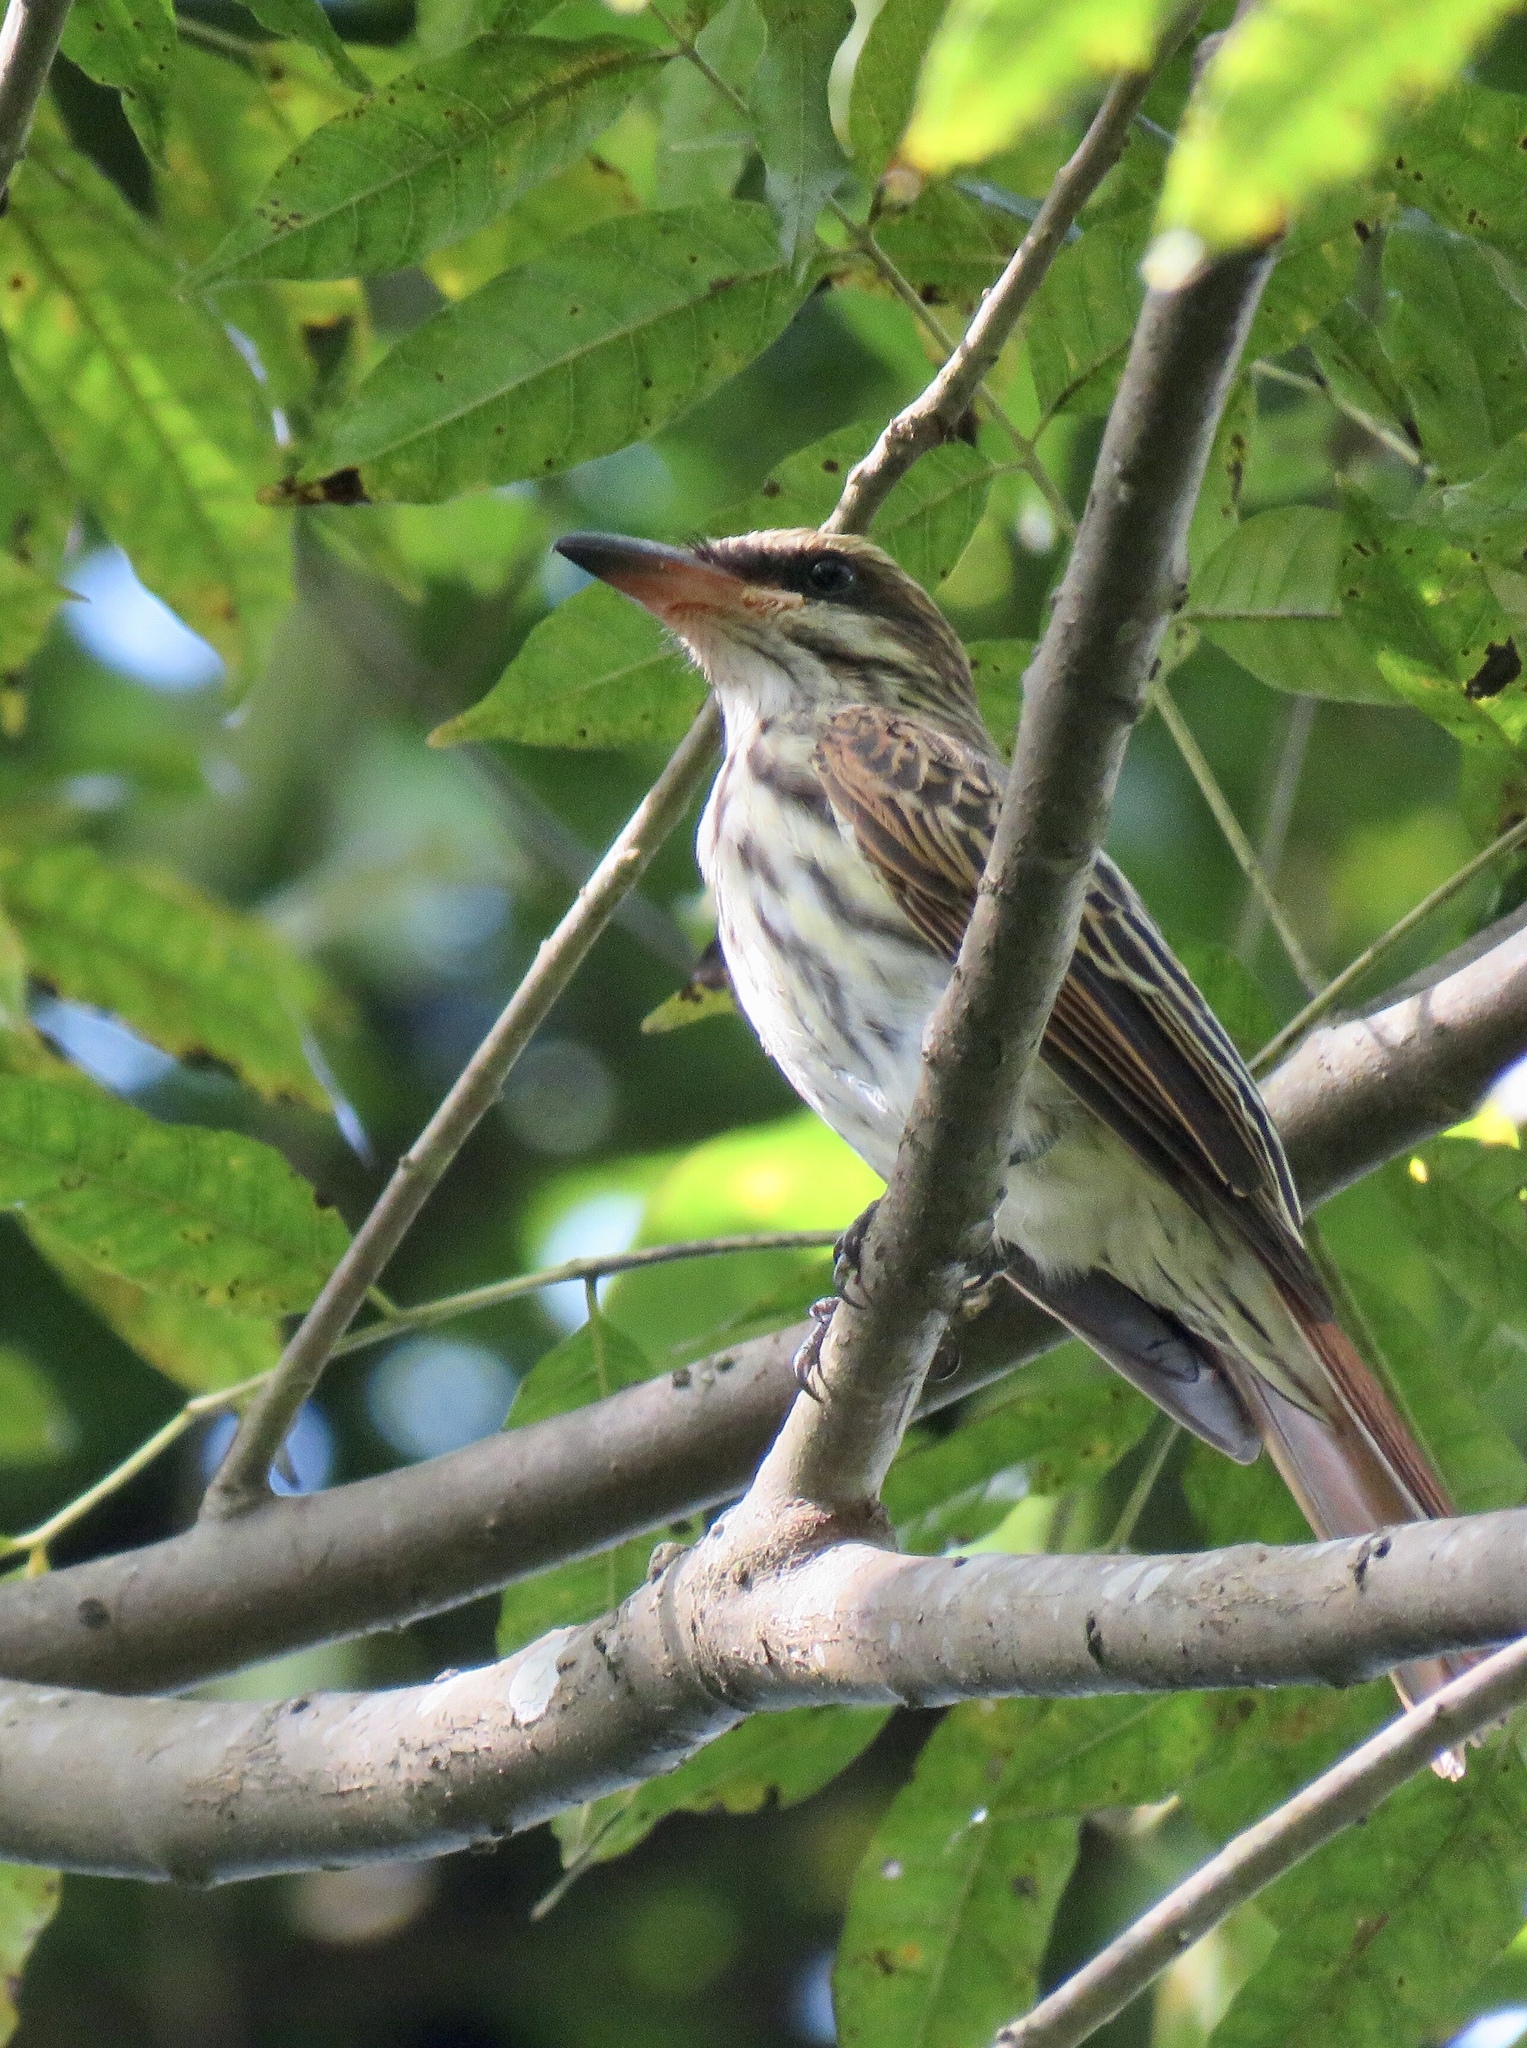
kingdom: Animalia
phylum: Chordata
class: Aves
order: Passeriformes
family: Tyrannidae
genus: Myiodynastes
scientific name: Myiodynastes maculatus
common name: Streaked flycatcher
